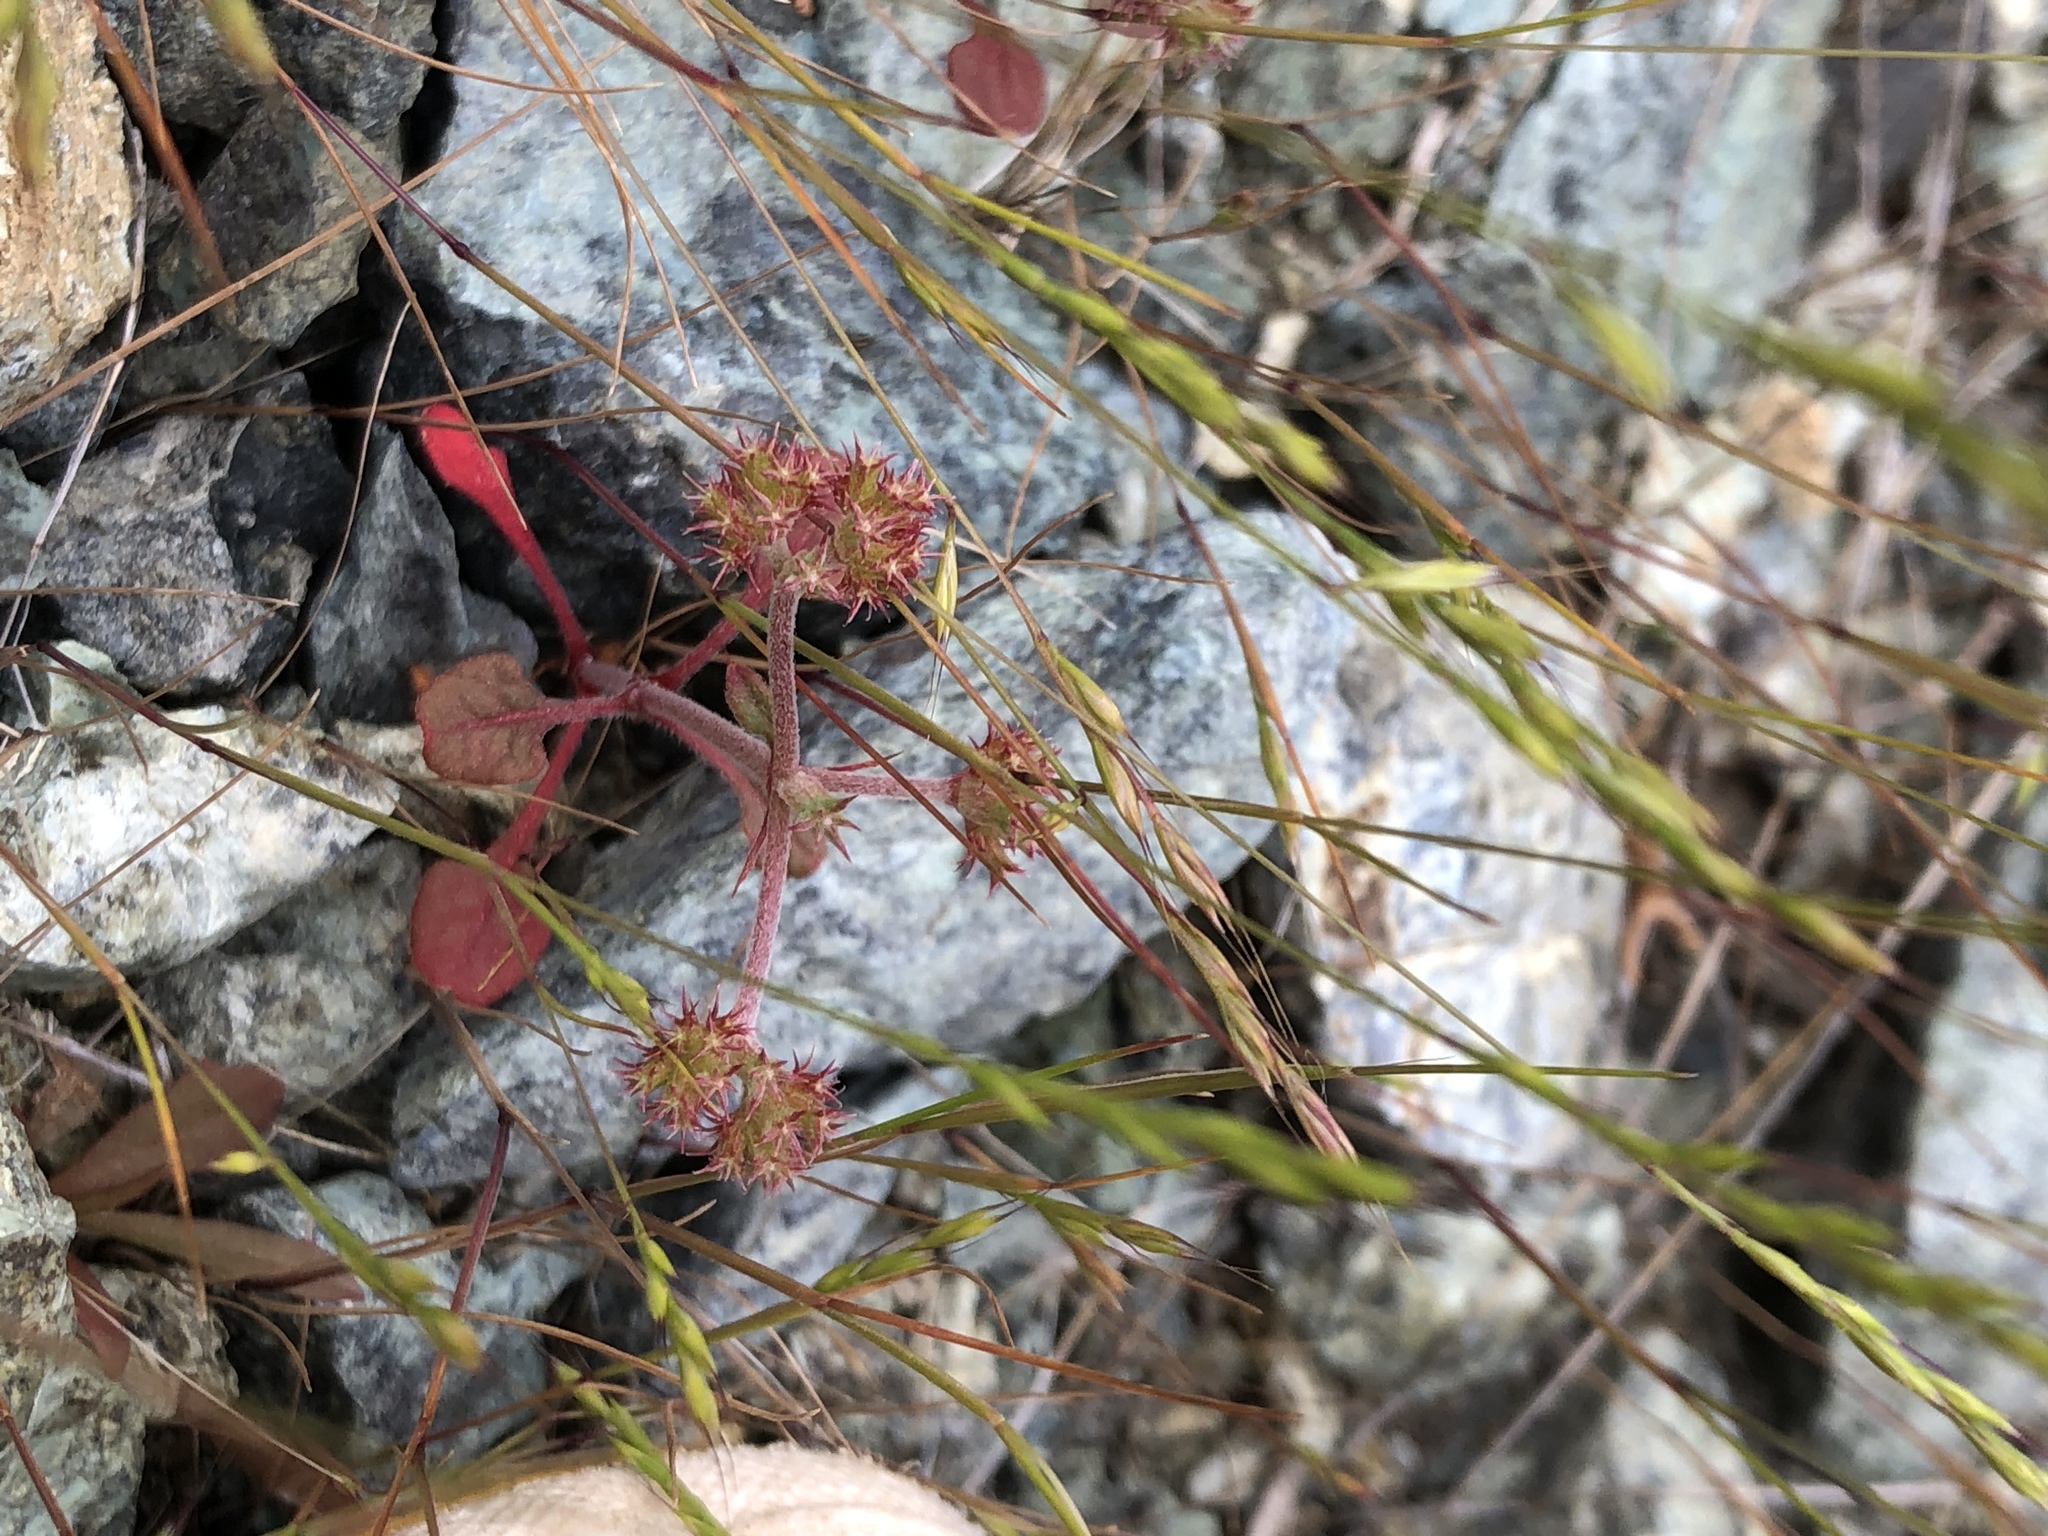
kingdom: Plantae
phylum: Tracheophyta
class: Magnoliopsida
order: Caryophyllales
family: Polygonaceae
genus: Chorizanthe
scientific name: Chorizanthe breweri
